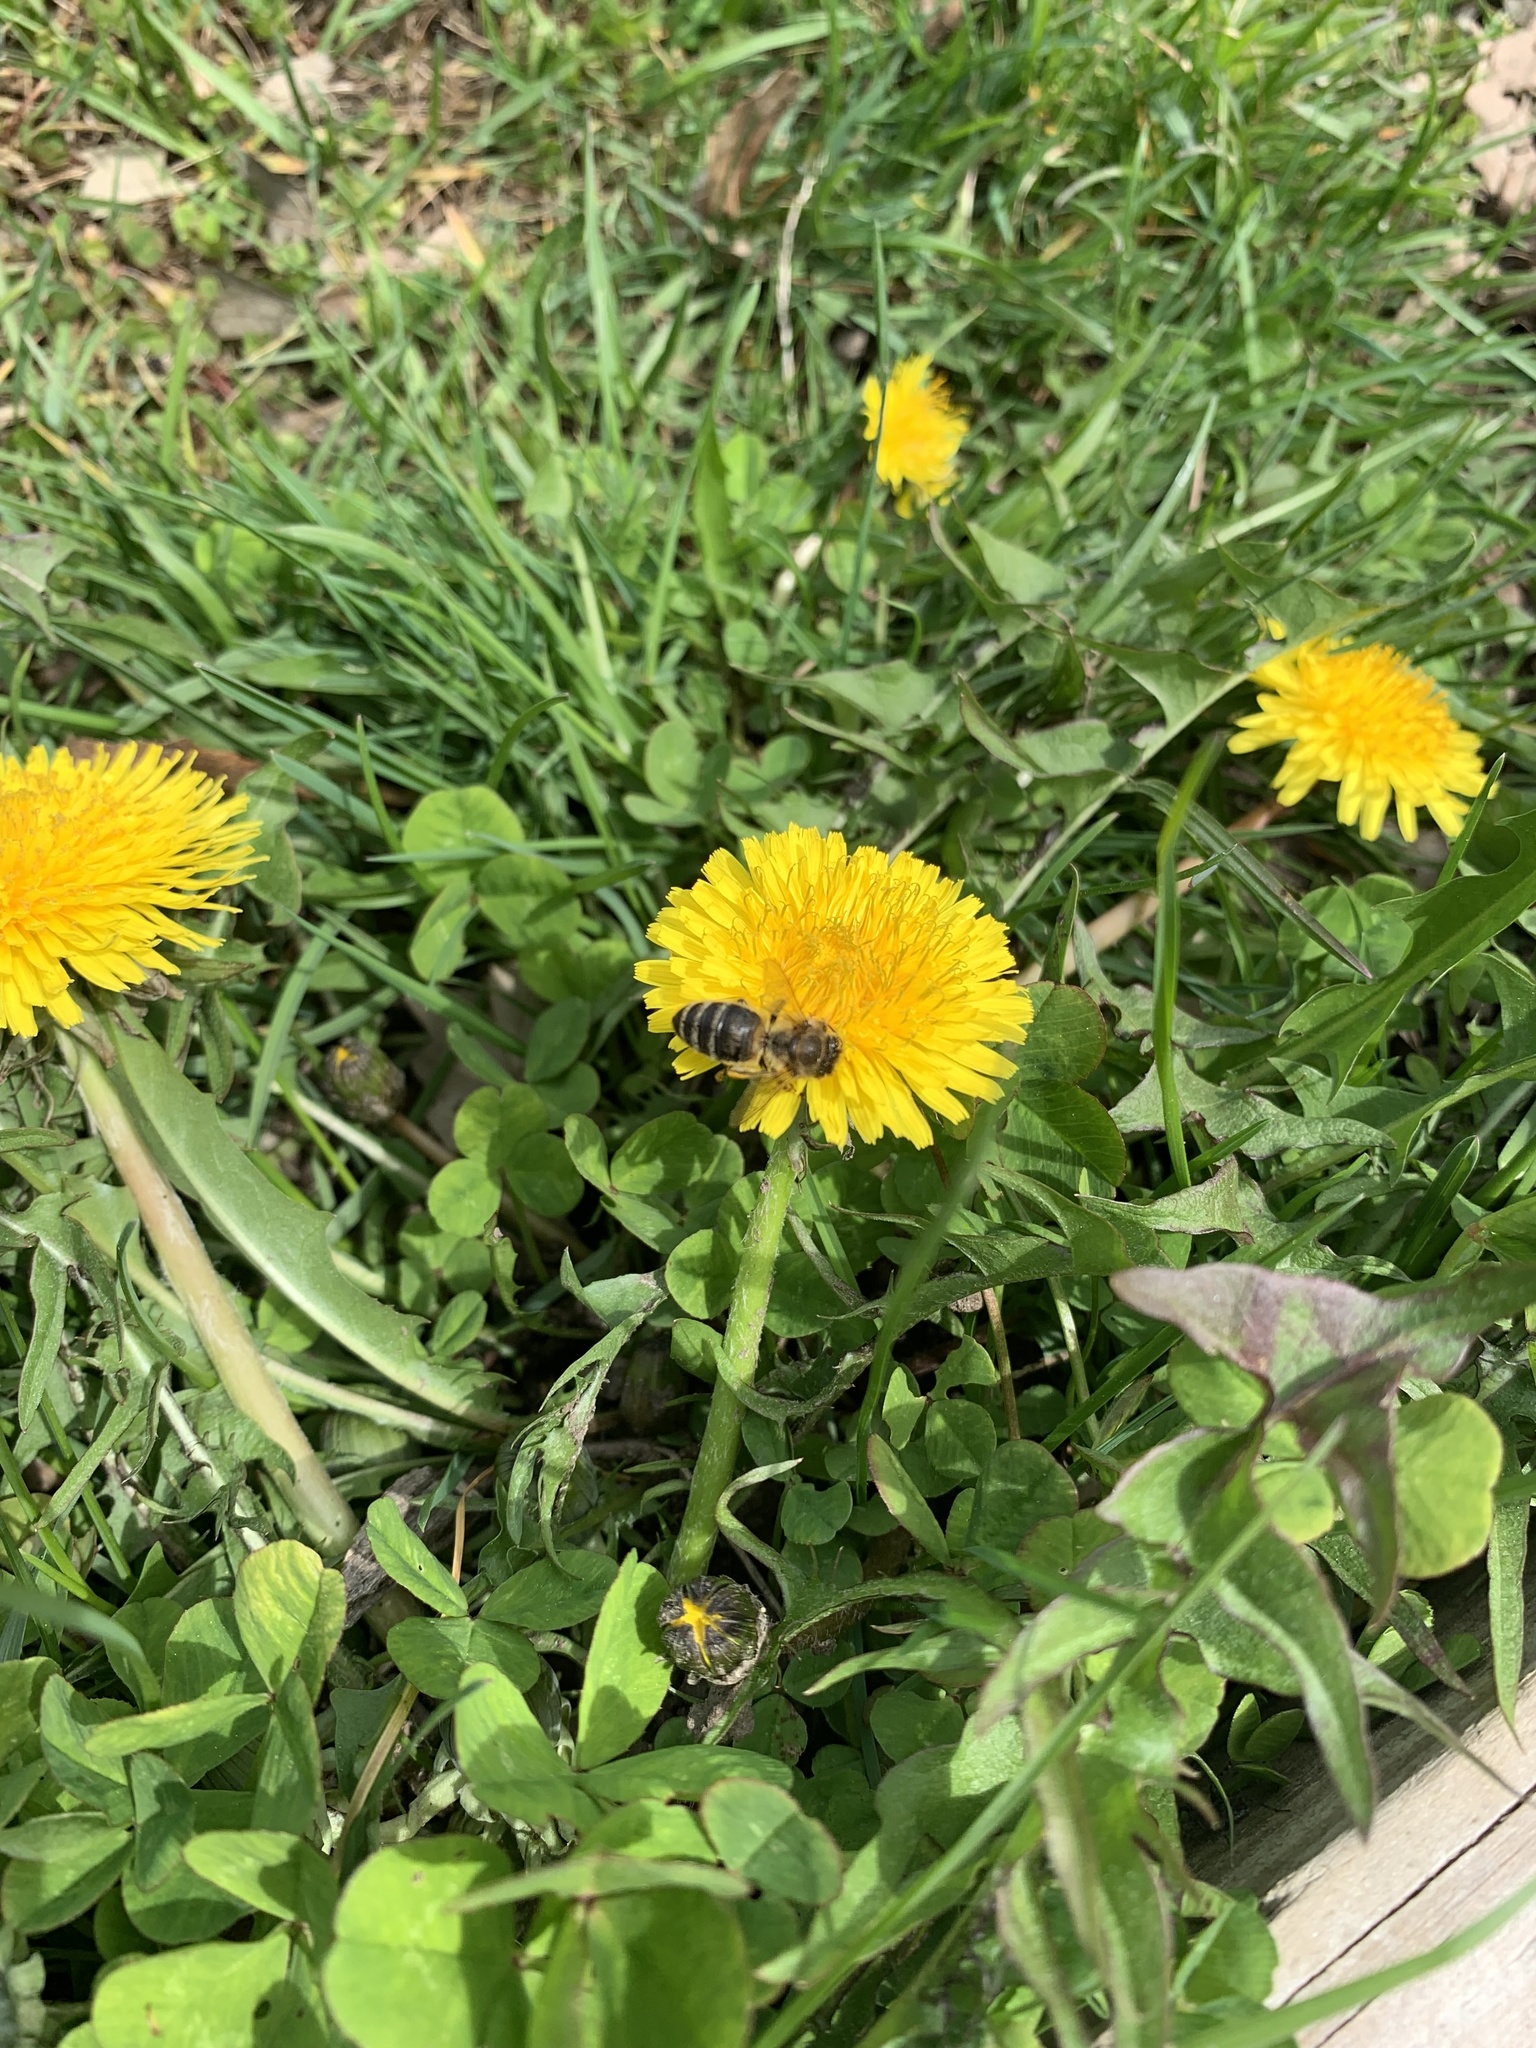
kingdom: Animalia
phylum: Arthropoda
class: Insecta
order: Hymenoptera
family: Apidae
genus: Apis
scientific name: Apis mellifera
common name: Honey bee
